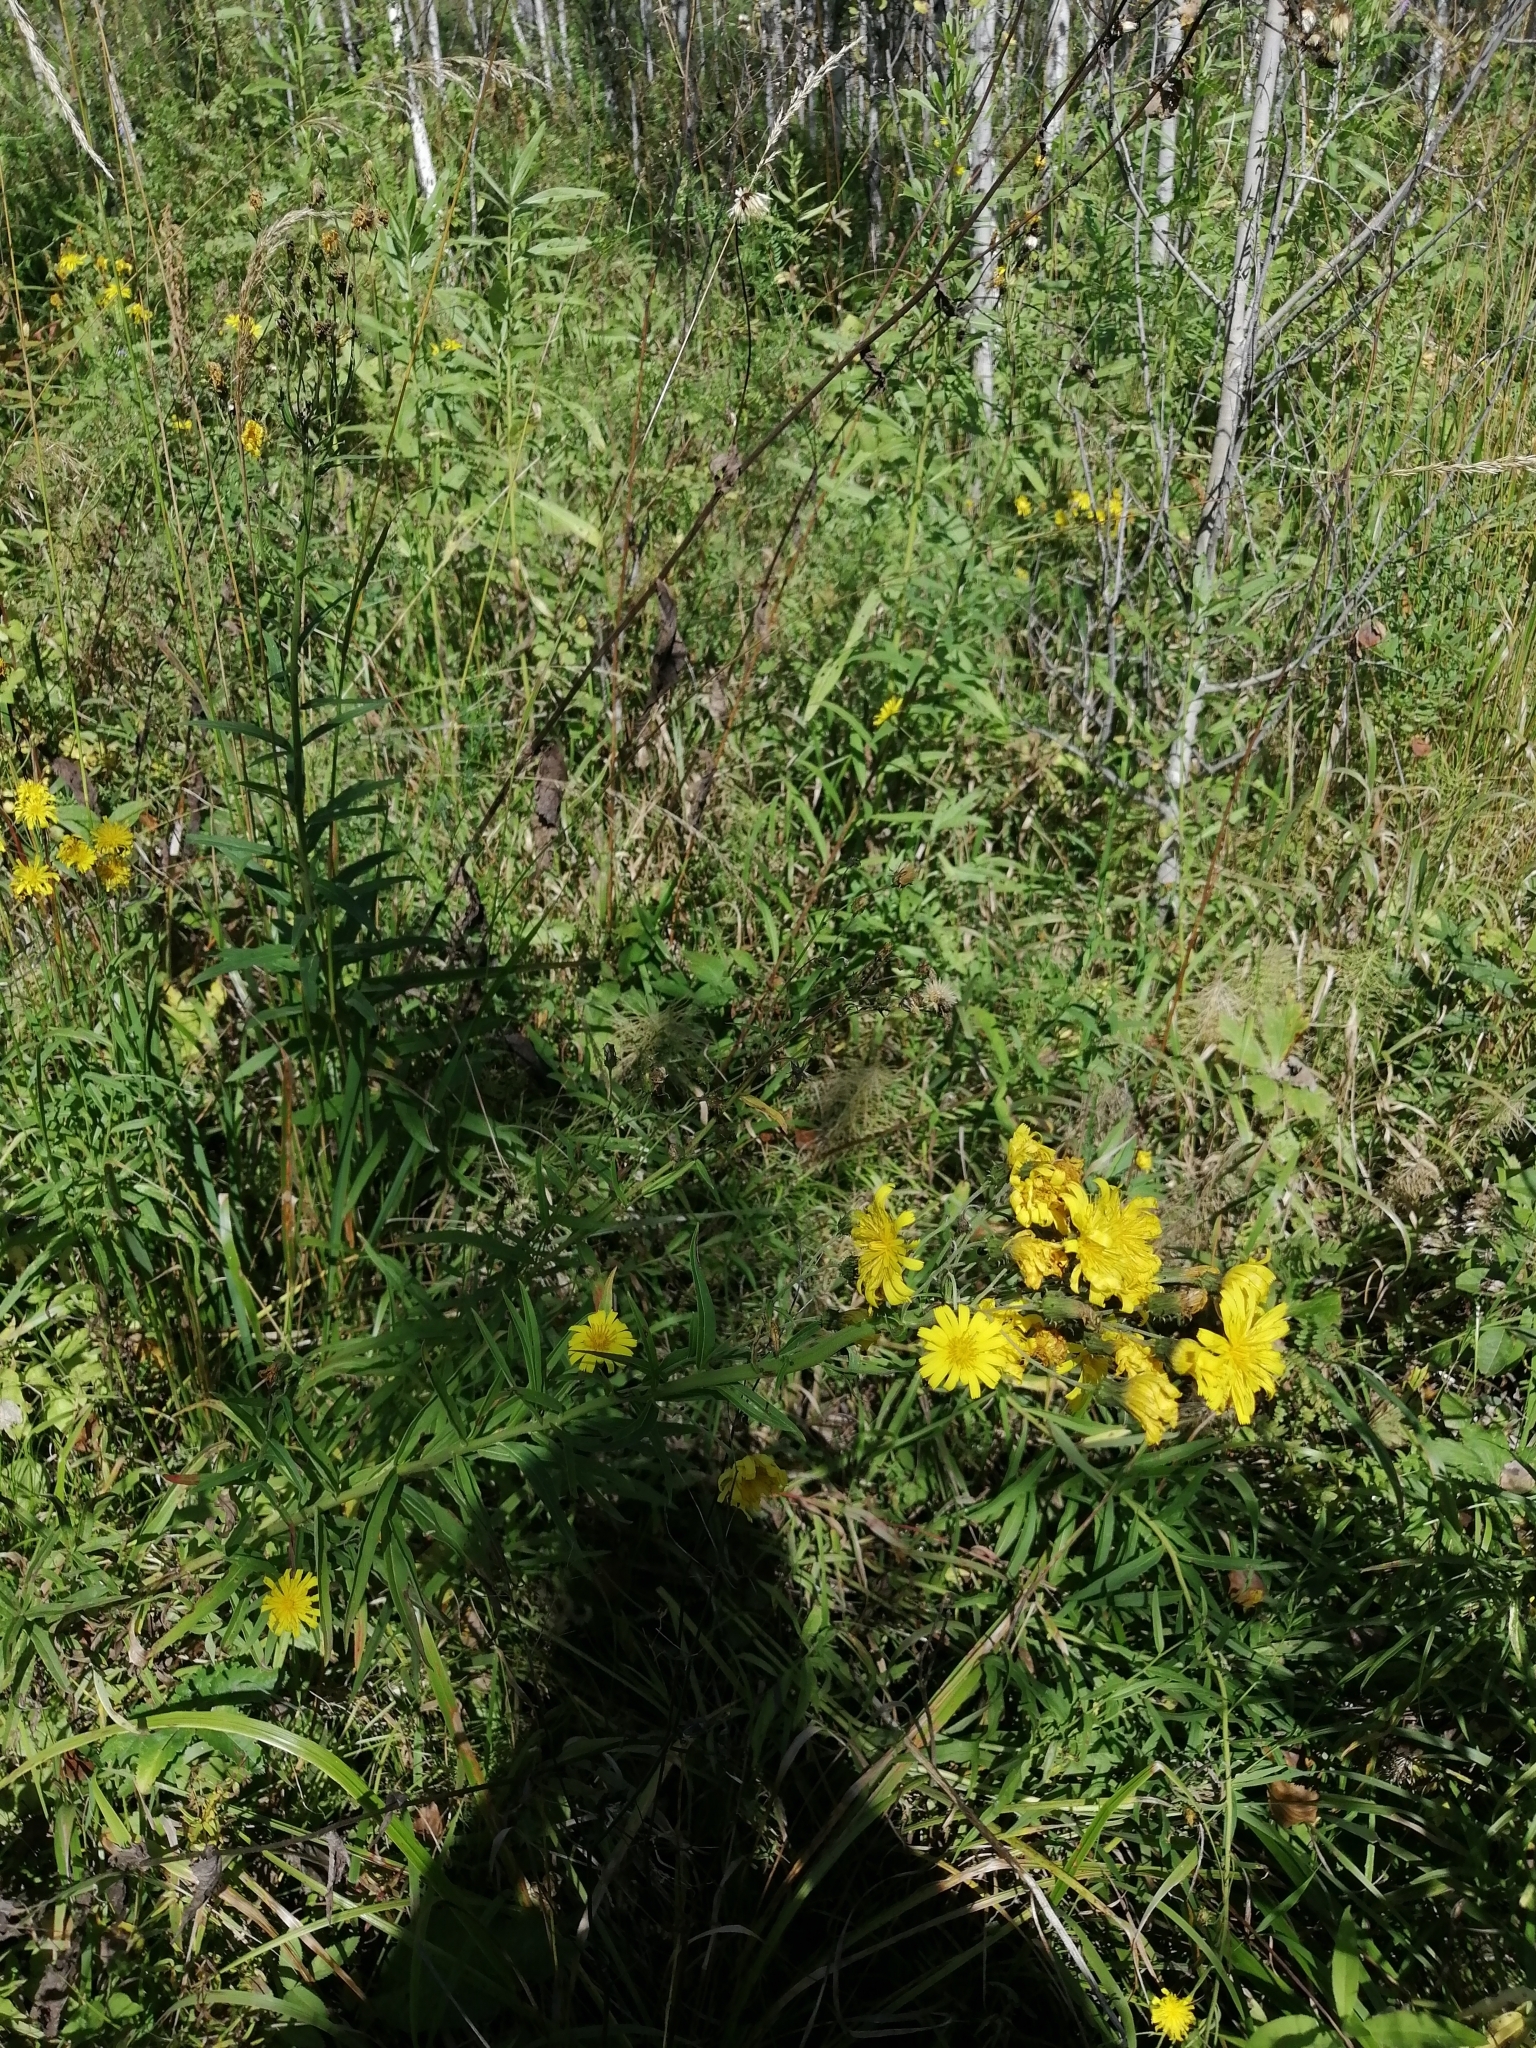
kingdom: Plantae
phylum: Tracheophyta
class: Magnoliopsida
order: Asterales
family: Asteraceae
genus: Hieracium
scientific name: Hieracium umbellatum
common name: Northern hawkweed
